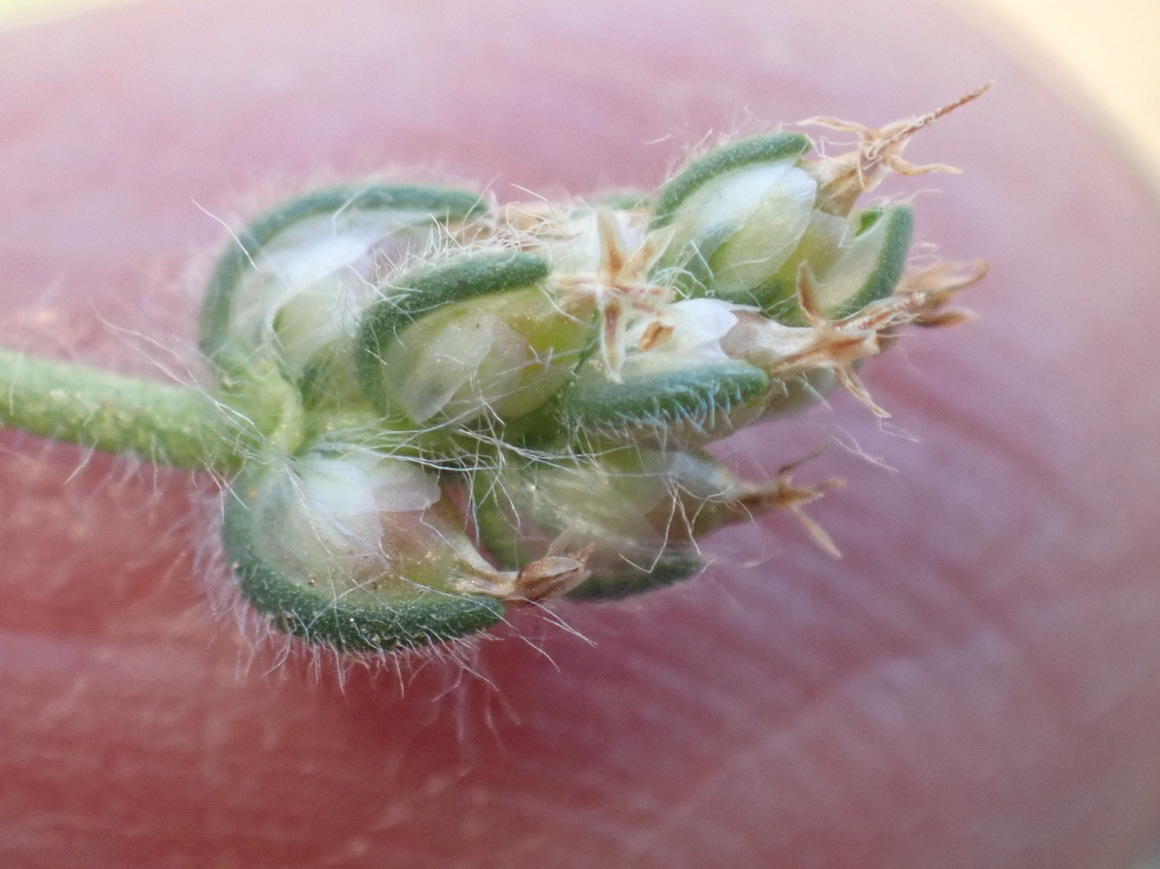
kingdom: Plantae
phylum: Tracheophyta
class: Magnoliopsida
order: Lamiales
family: Plantaginaceae
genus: Plantago
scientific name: Plantago cafra
